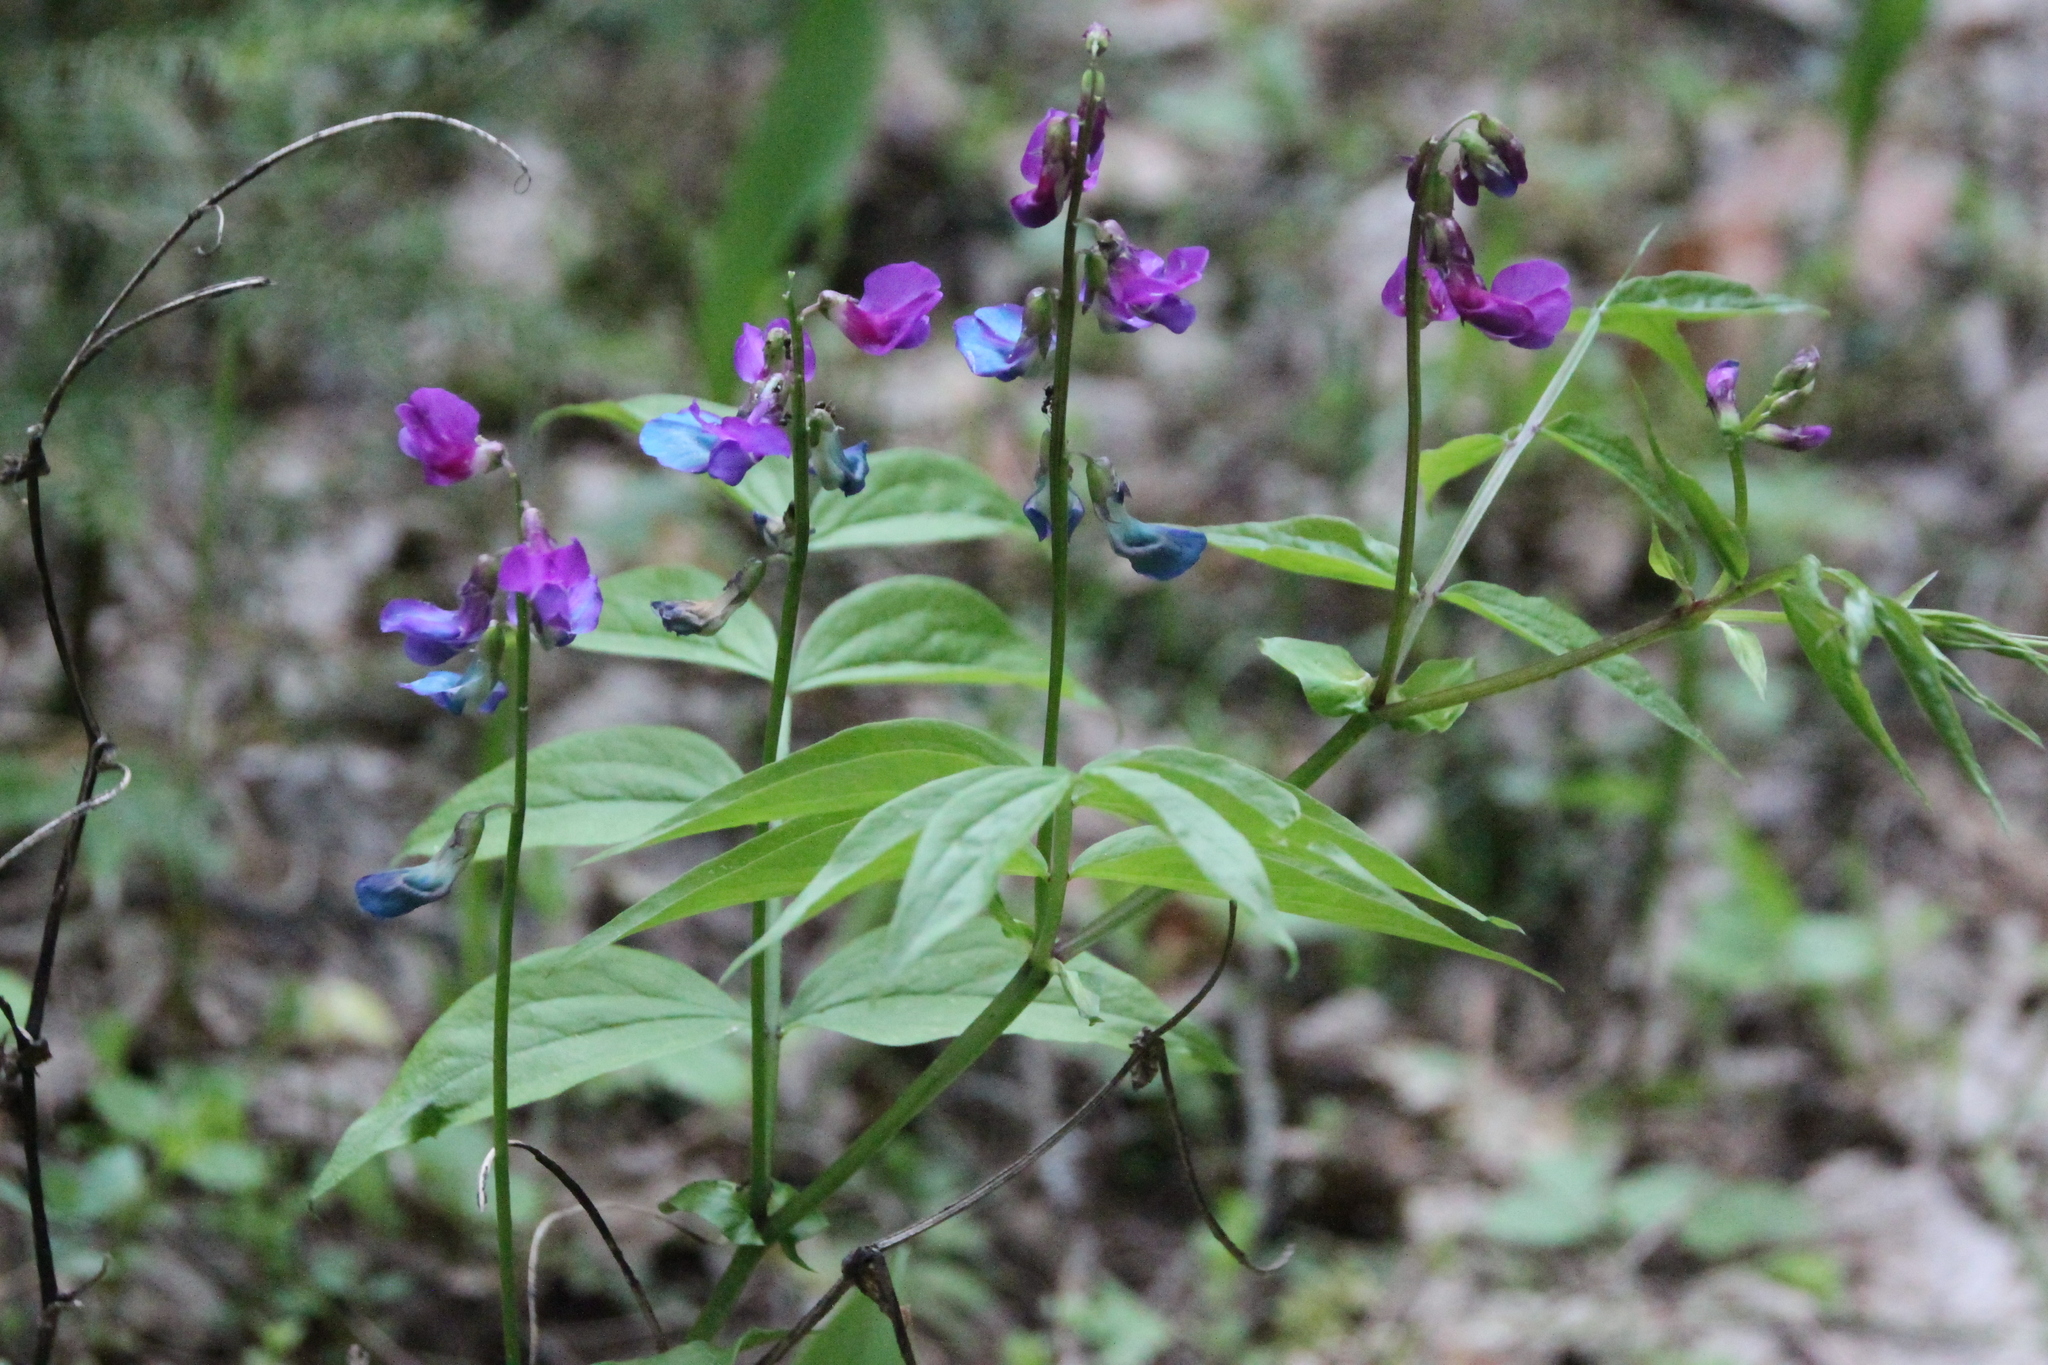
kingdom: Plantae
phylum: Tracheophyta
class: Magnoliopsida
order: Fabales
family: Fabaceae
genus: Lathyrus
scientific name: Lathyrus vernus
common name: Spring pea
